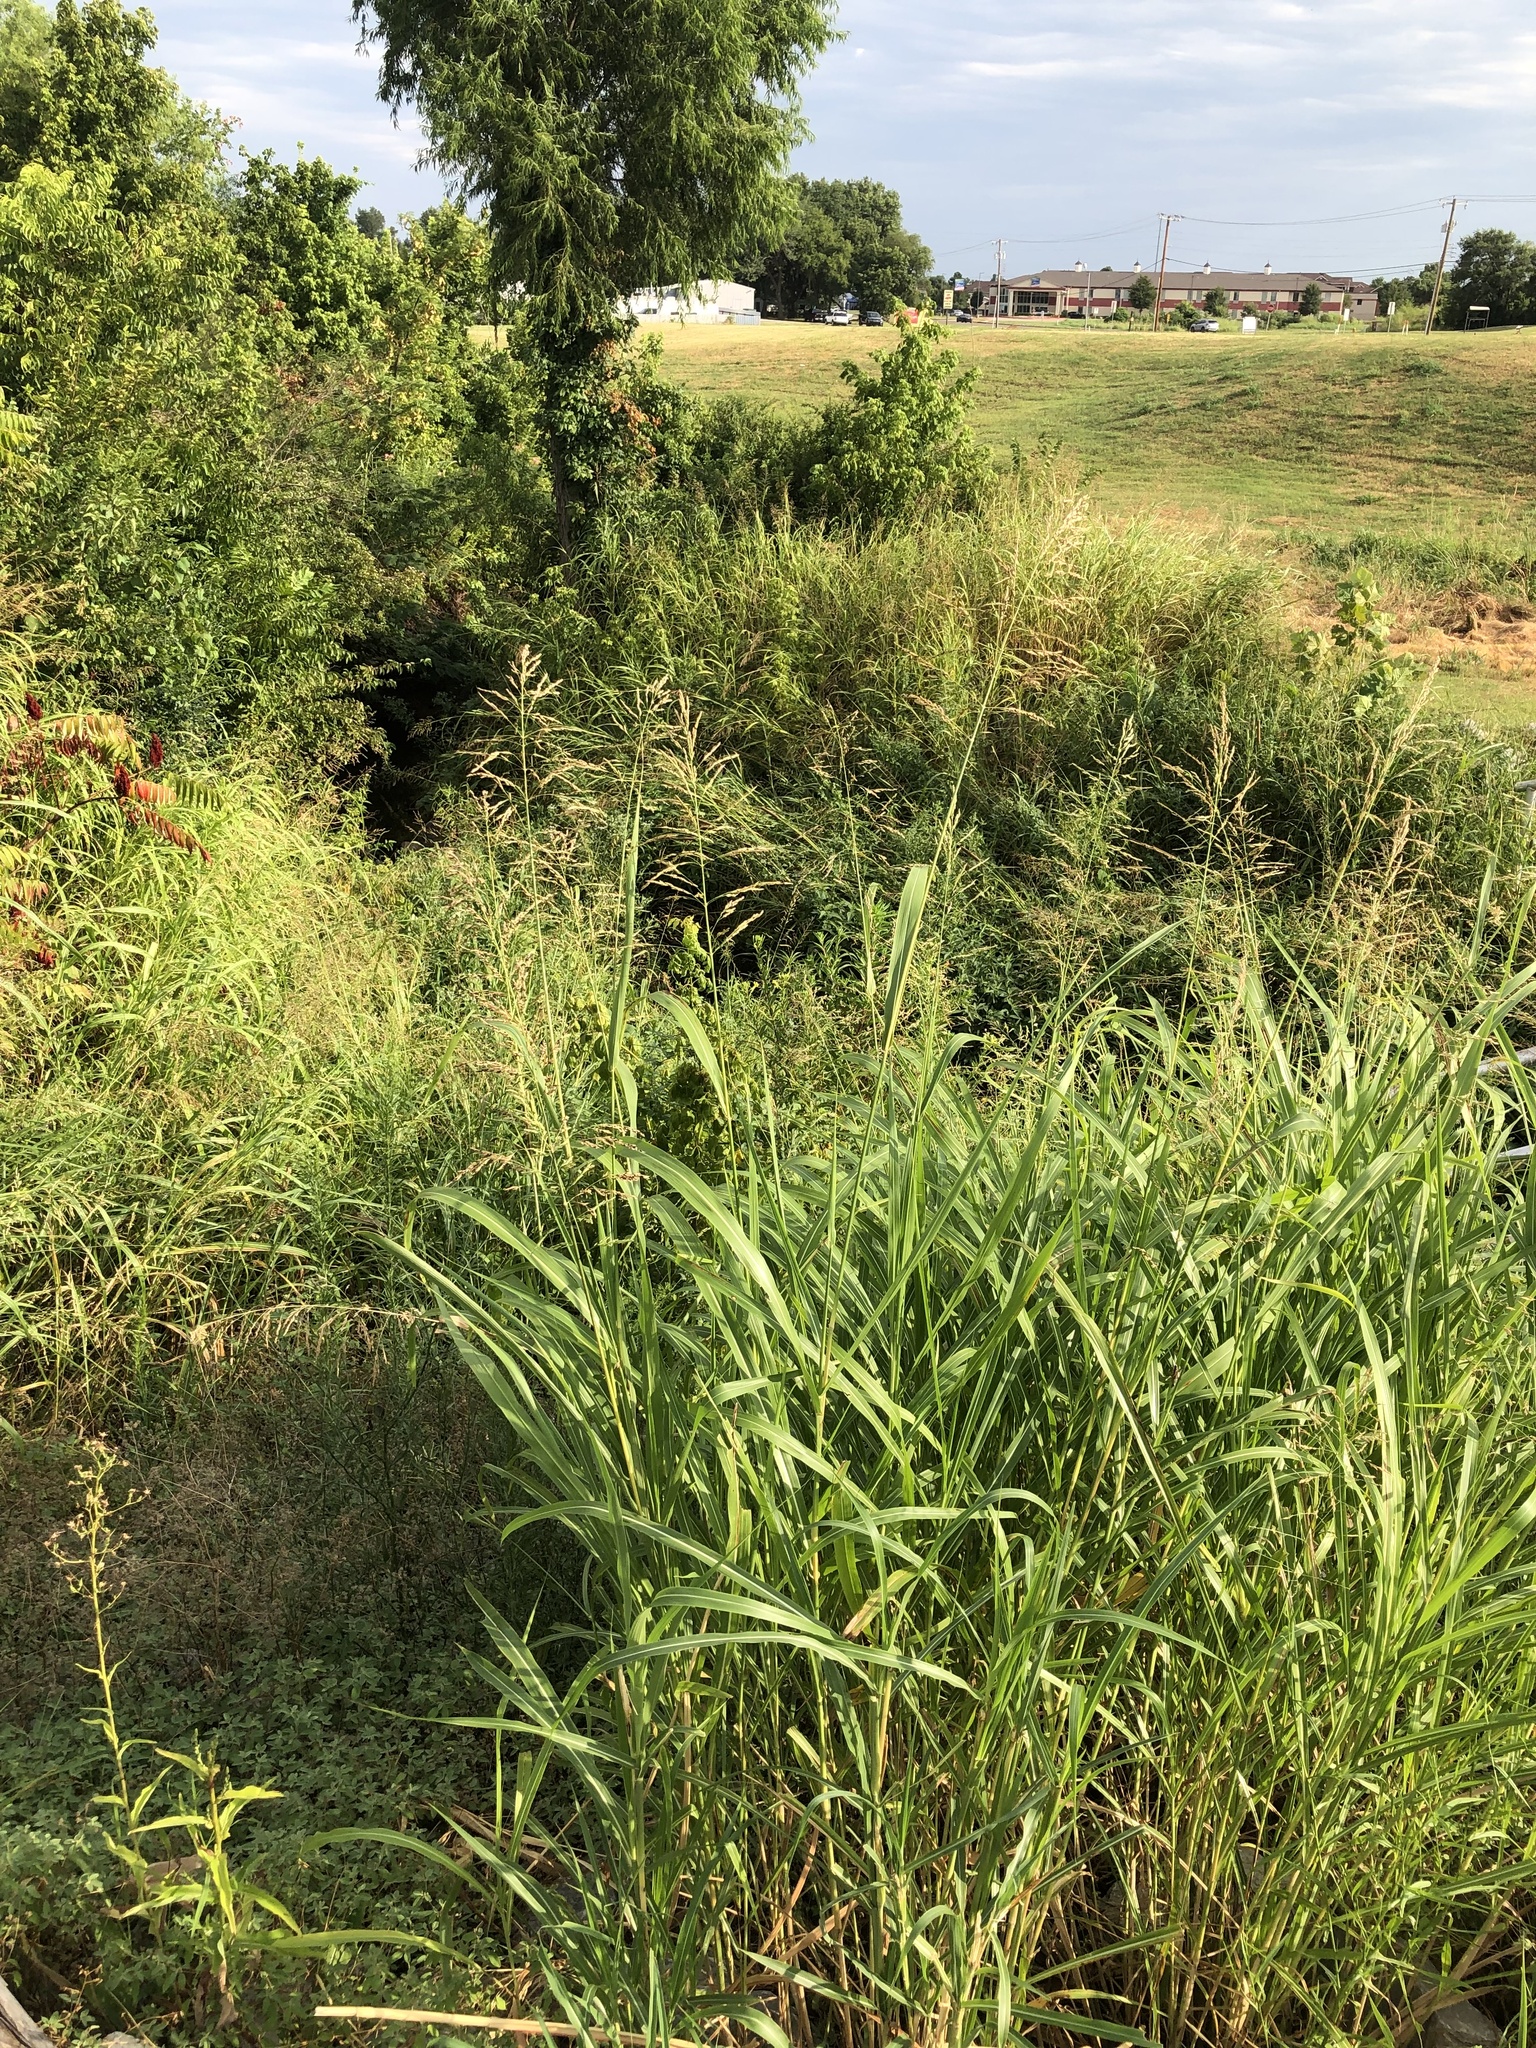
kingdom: Plantae
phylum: Tracheophyta
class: Liliopsida
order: Poales
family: Poaceae
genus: Sorghum
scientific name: Sorghum halepense
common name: Johnson-grass
